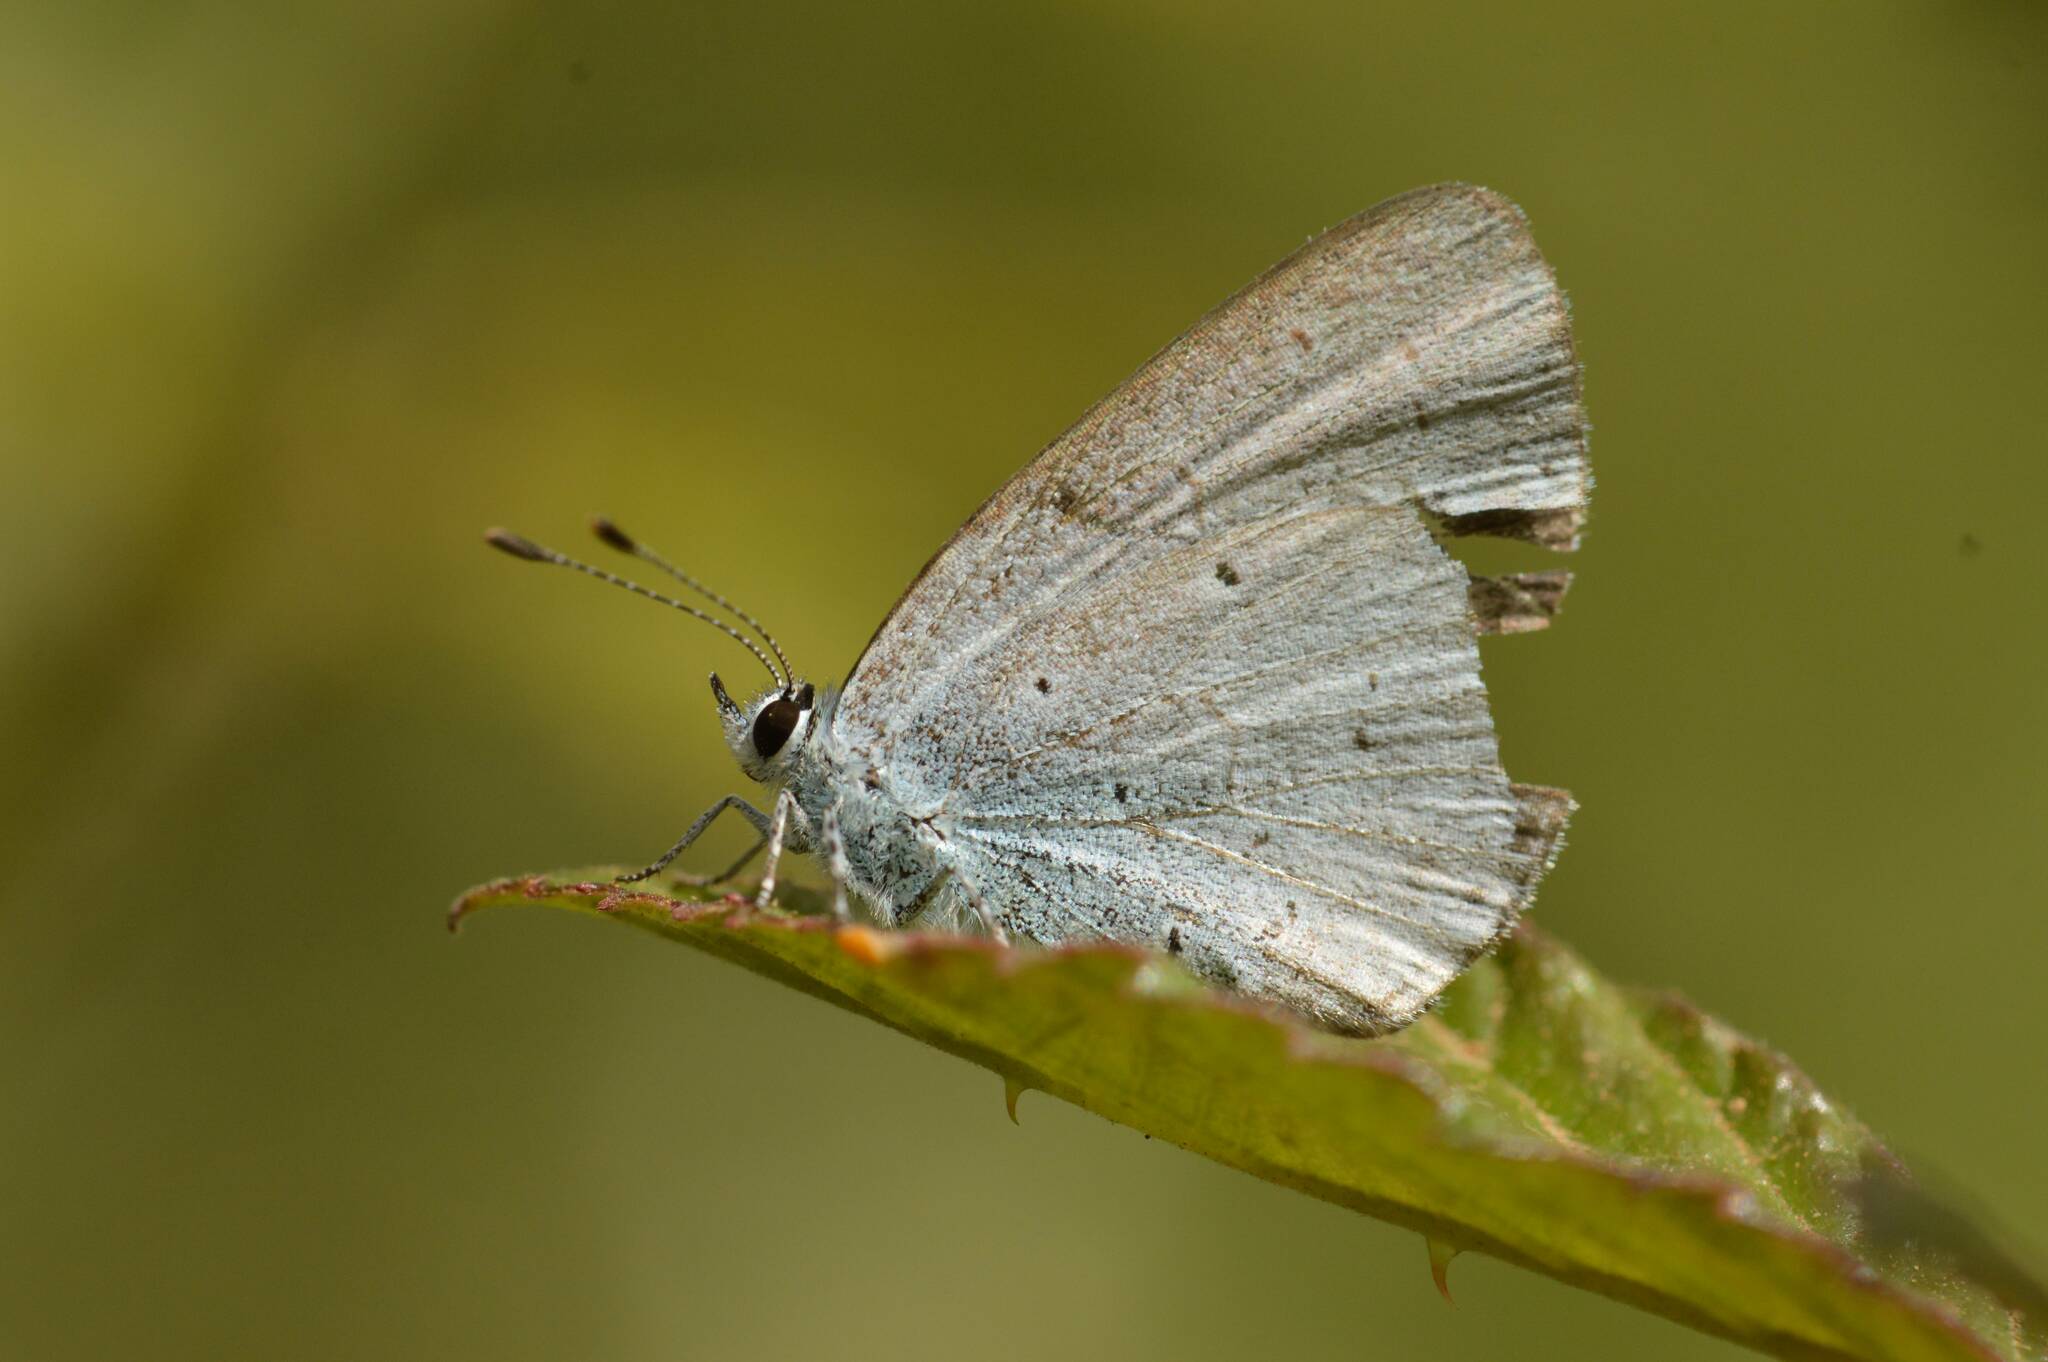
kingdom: Animalia
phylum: Arthropoda
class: Insecta
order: Lepidoptera
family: Lycaenidae
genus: Celastrina
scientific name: Celastrina argiolus
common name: Holly blue
